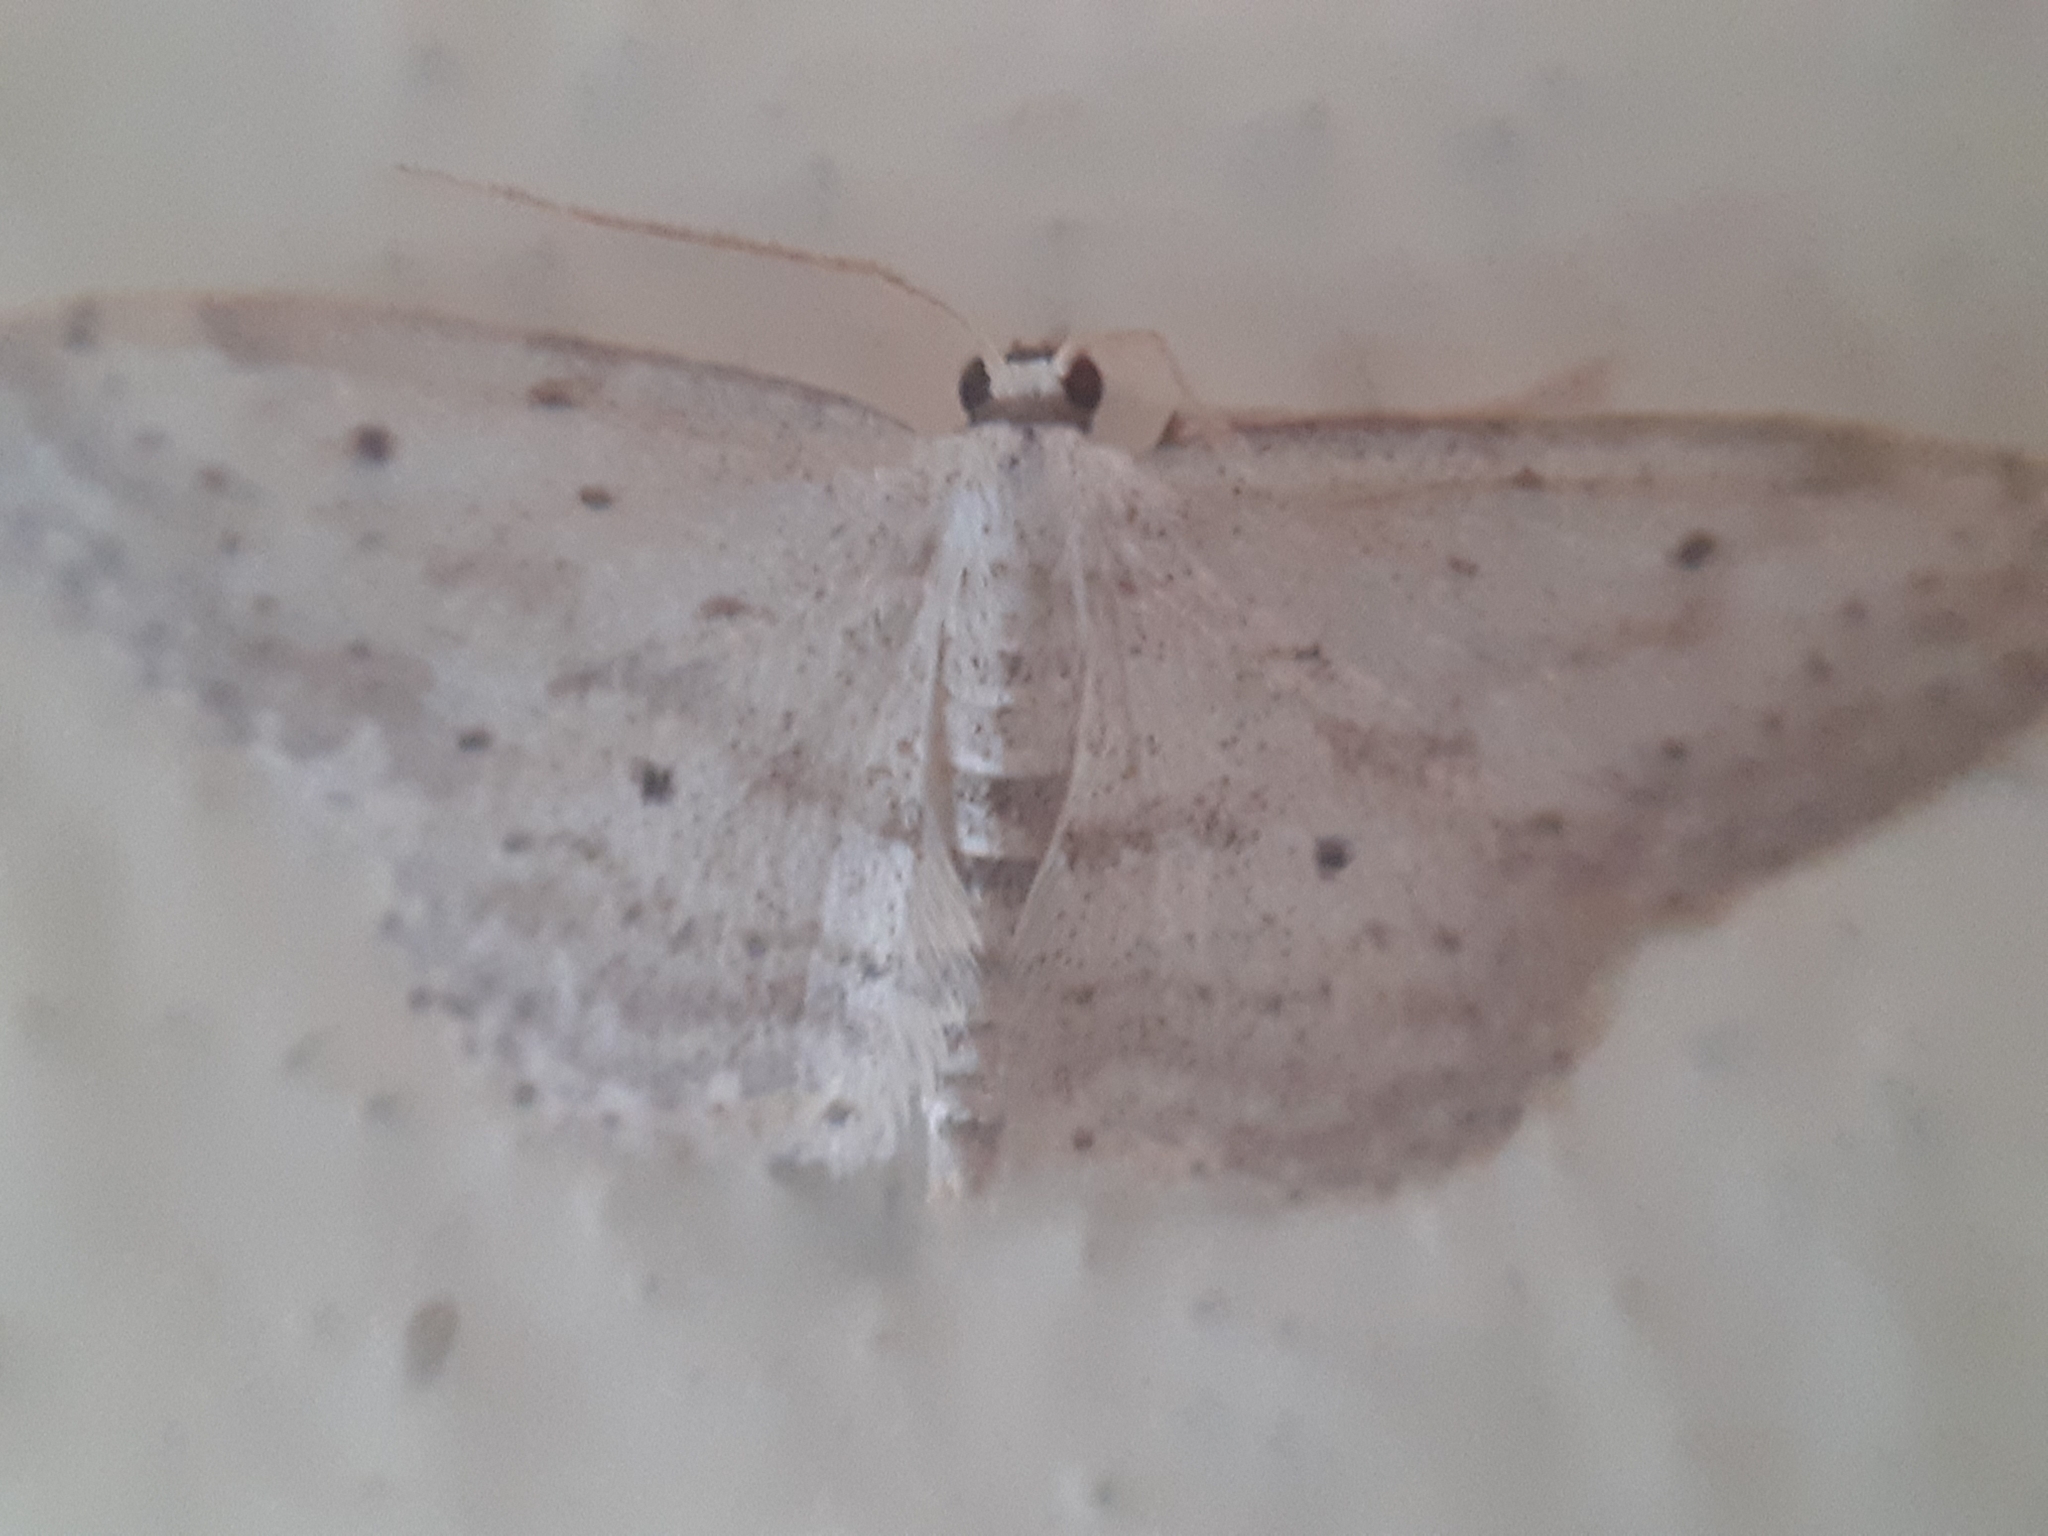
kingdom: Animalia
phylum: Arthropoda
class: Insecta
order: Lepidoptera
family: Geometridae
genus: Idaea
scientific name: Idaea seriata
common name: Small dusty wave
